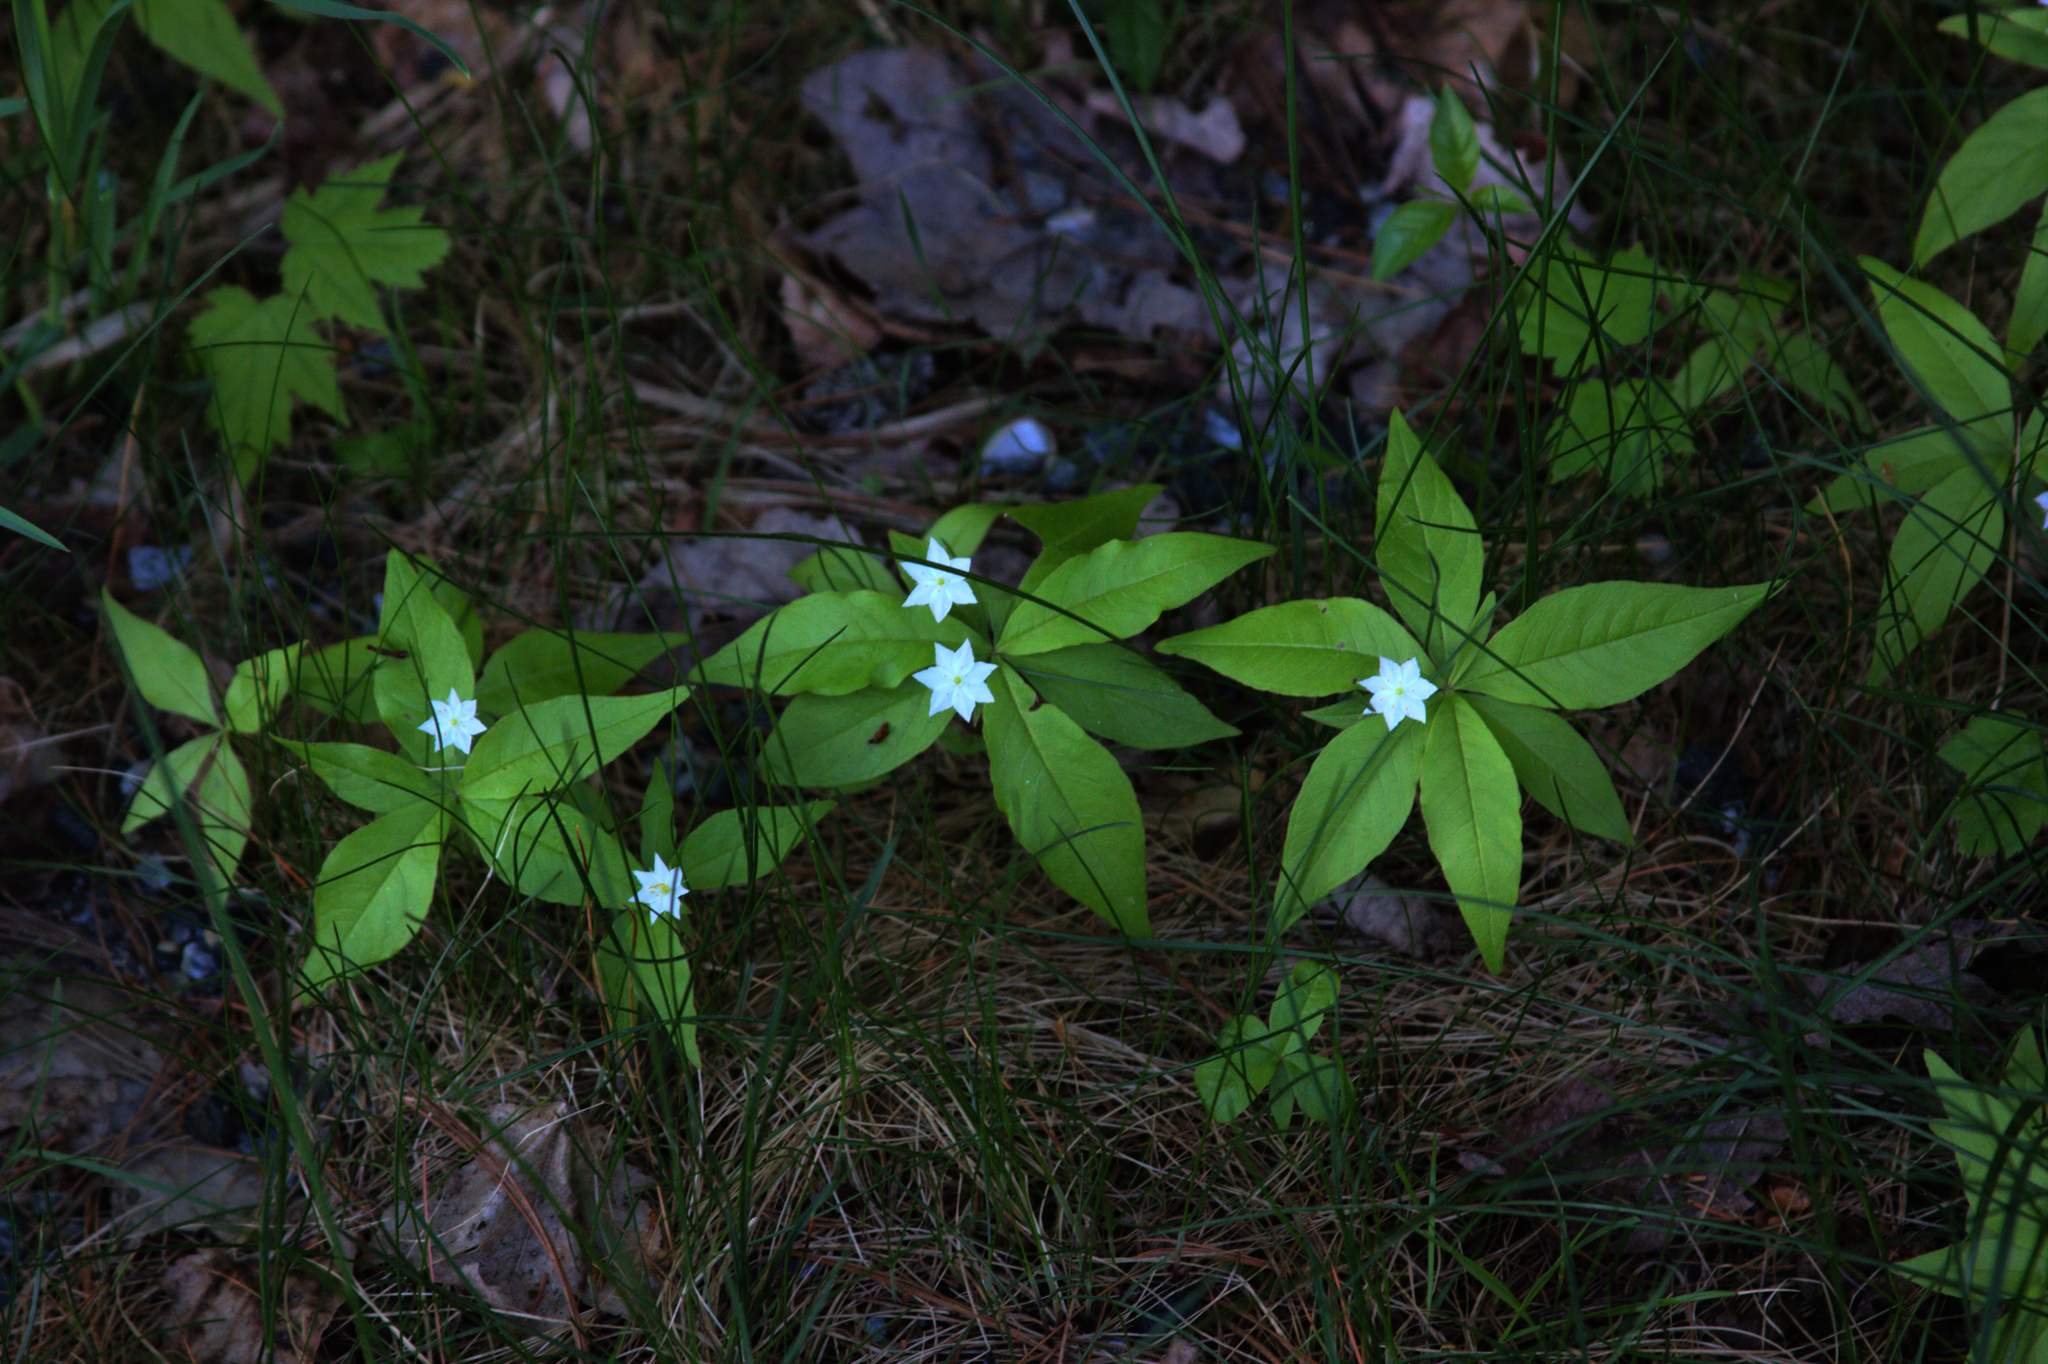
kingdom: Plantae
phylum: Tracheophyta
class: Magnoliopsida
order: Ericales
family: Primulaceae
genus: Lysimachia
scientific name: Lysimachia borealis
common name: American starflower
